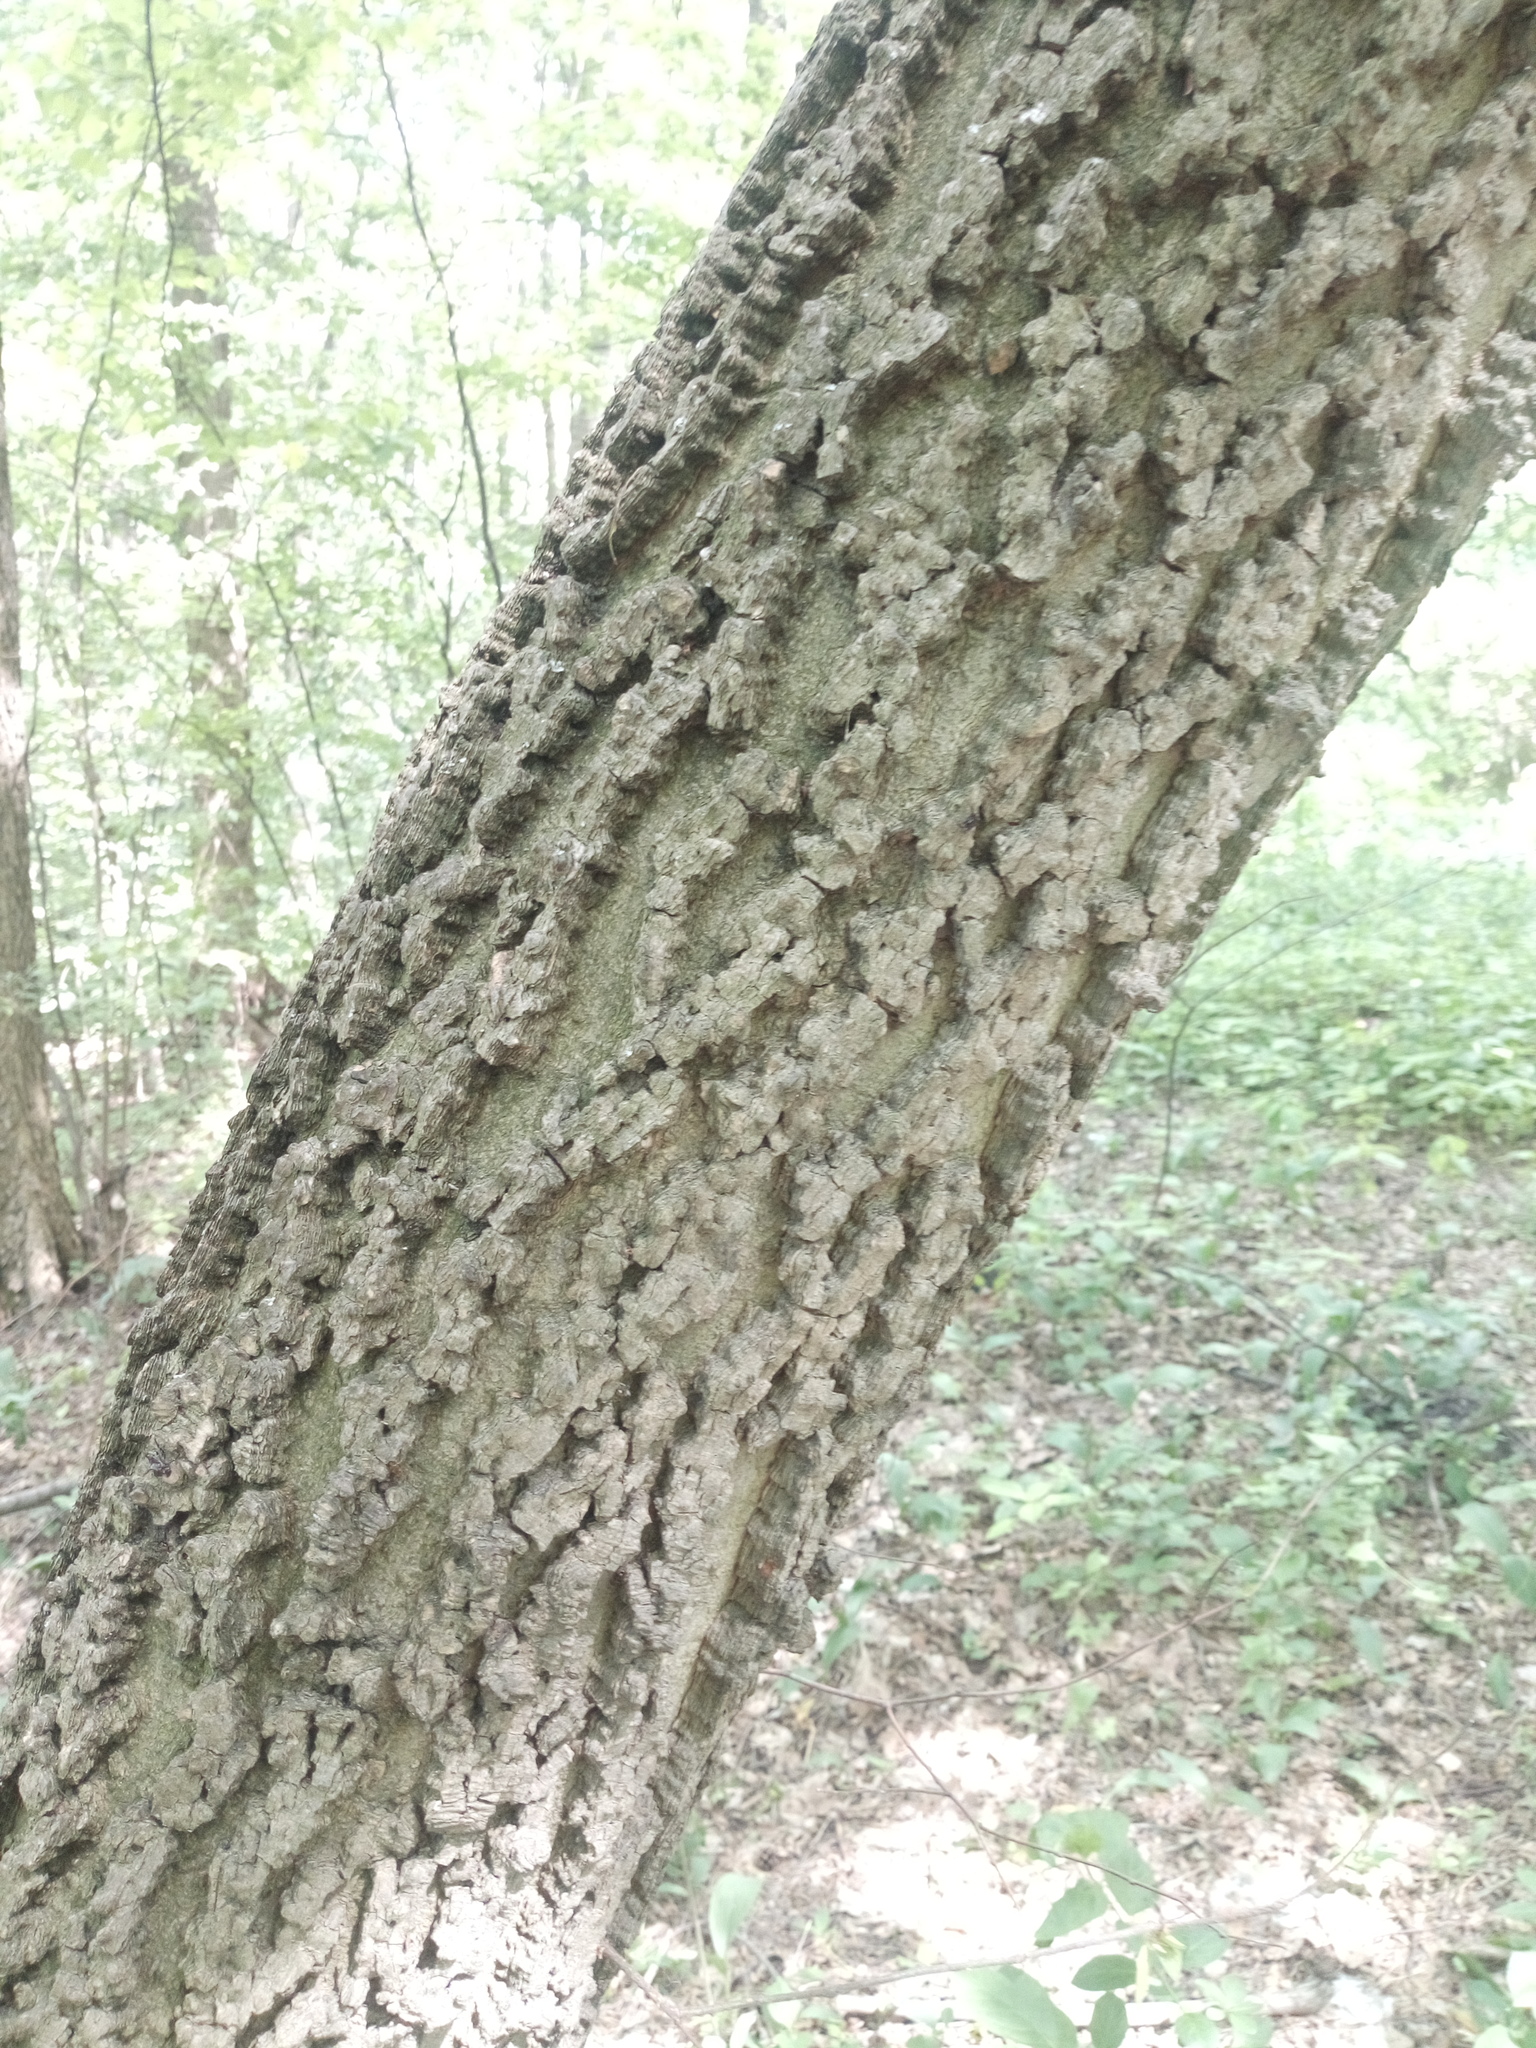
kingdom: Plantae
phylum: Tracheophyta
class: Magnoliopsida
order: Rosales
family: Cannabaceae
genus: Celtis
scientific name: Celtis occidentalis
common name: Common hackberry
